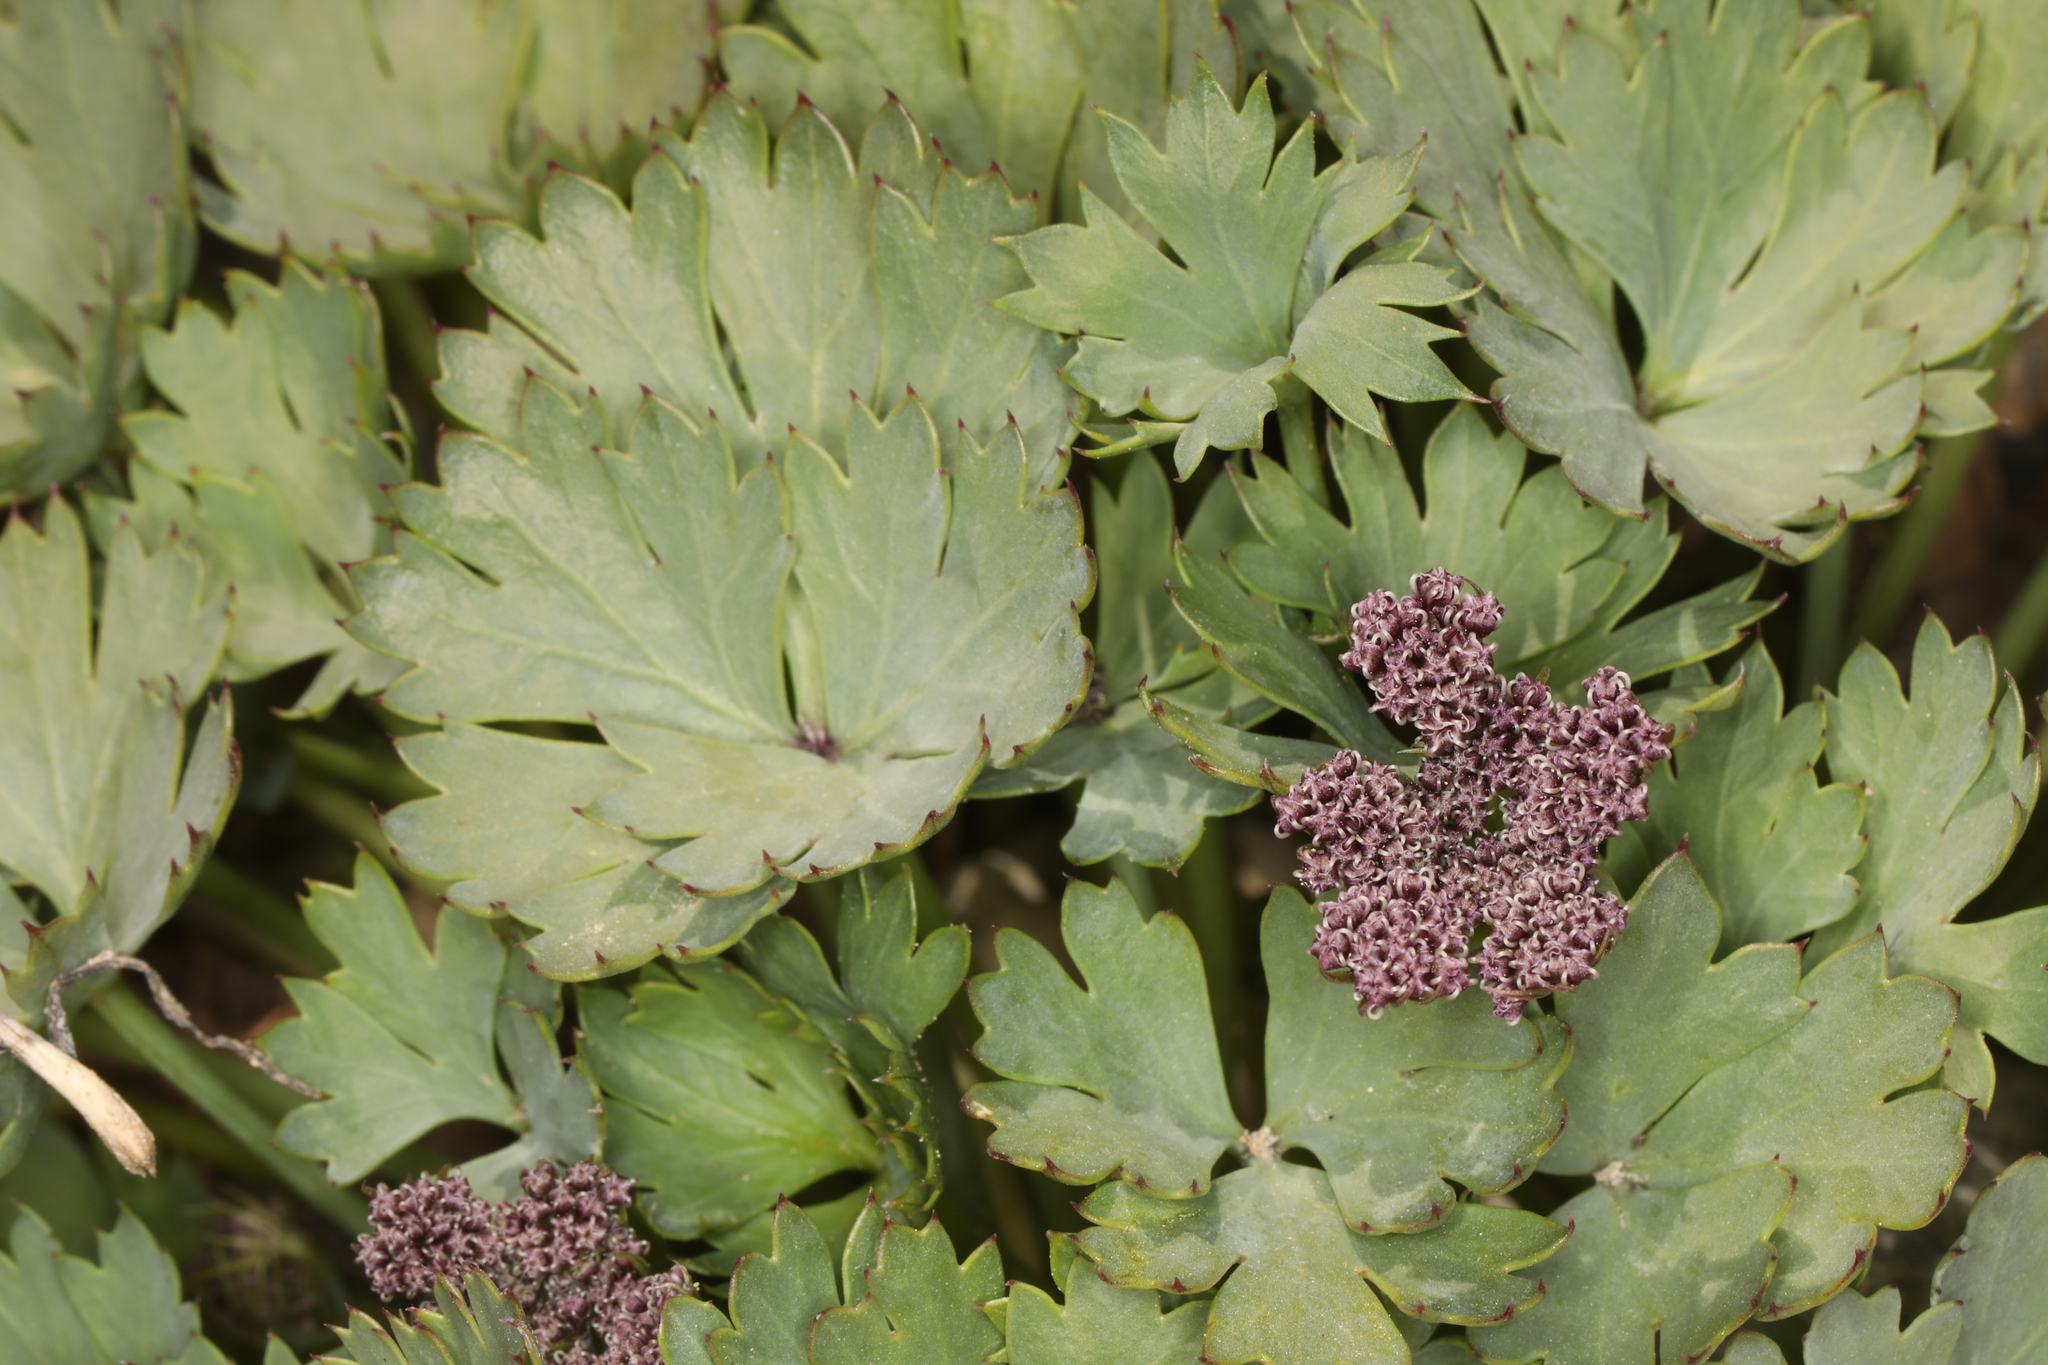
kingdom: Plantae
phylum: Tracheophyta
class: Magnoliopsida
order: Apiales
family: Apiaceae
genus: Cymopterus
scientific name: Cymopterus gilmanii
